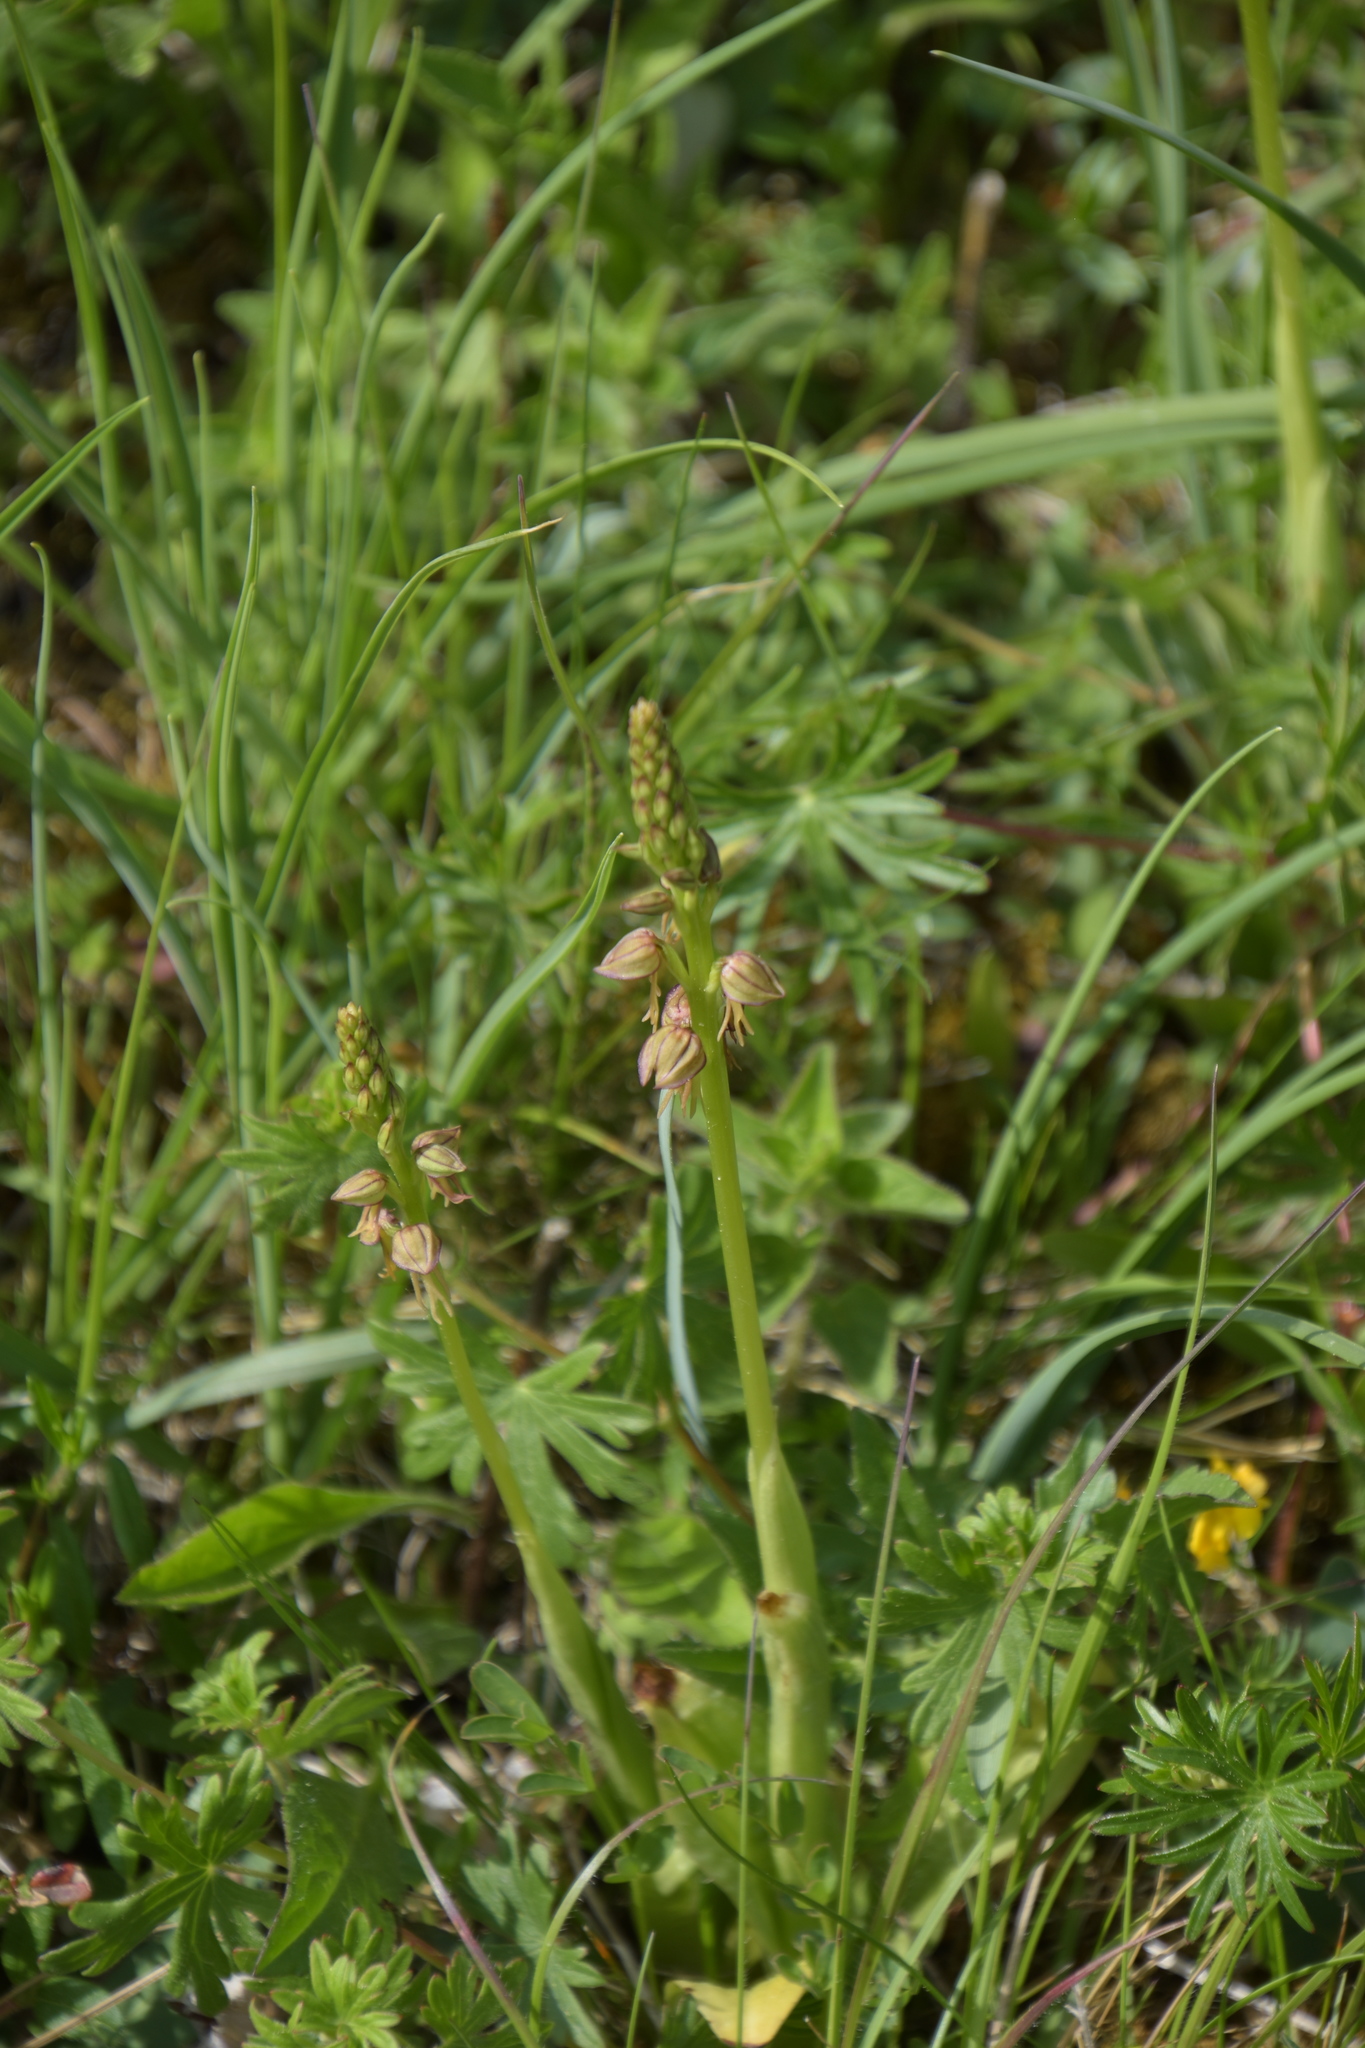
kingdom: Plantae
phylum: Tracheophyta
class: Liliopsida
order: Asparagales
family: Orchidaceae
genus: Orchis
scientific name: Orchis anthropophora
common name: Man orchid
